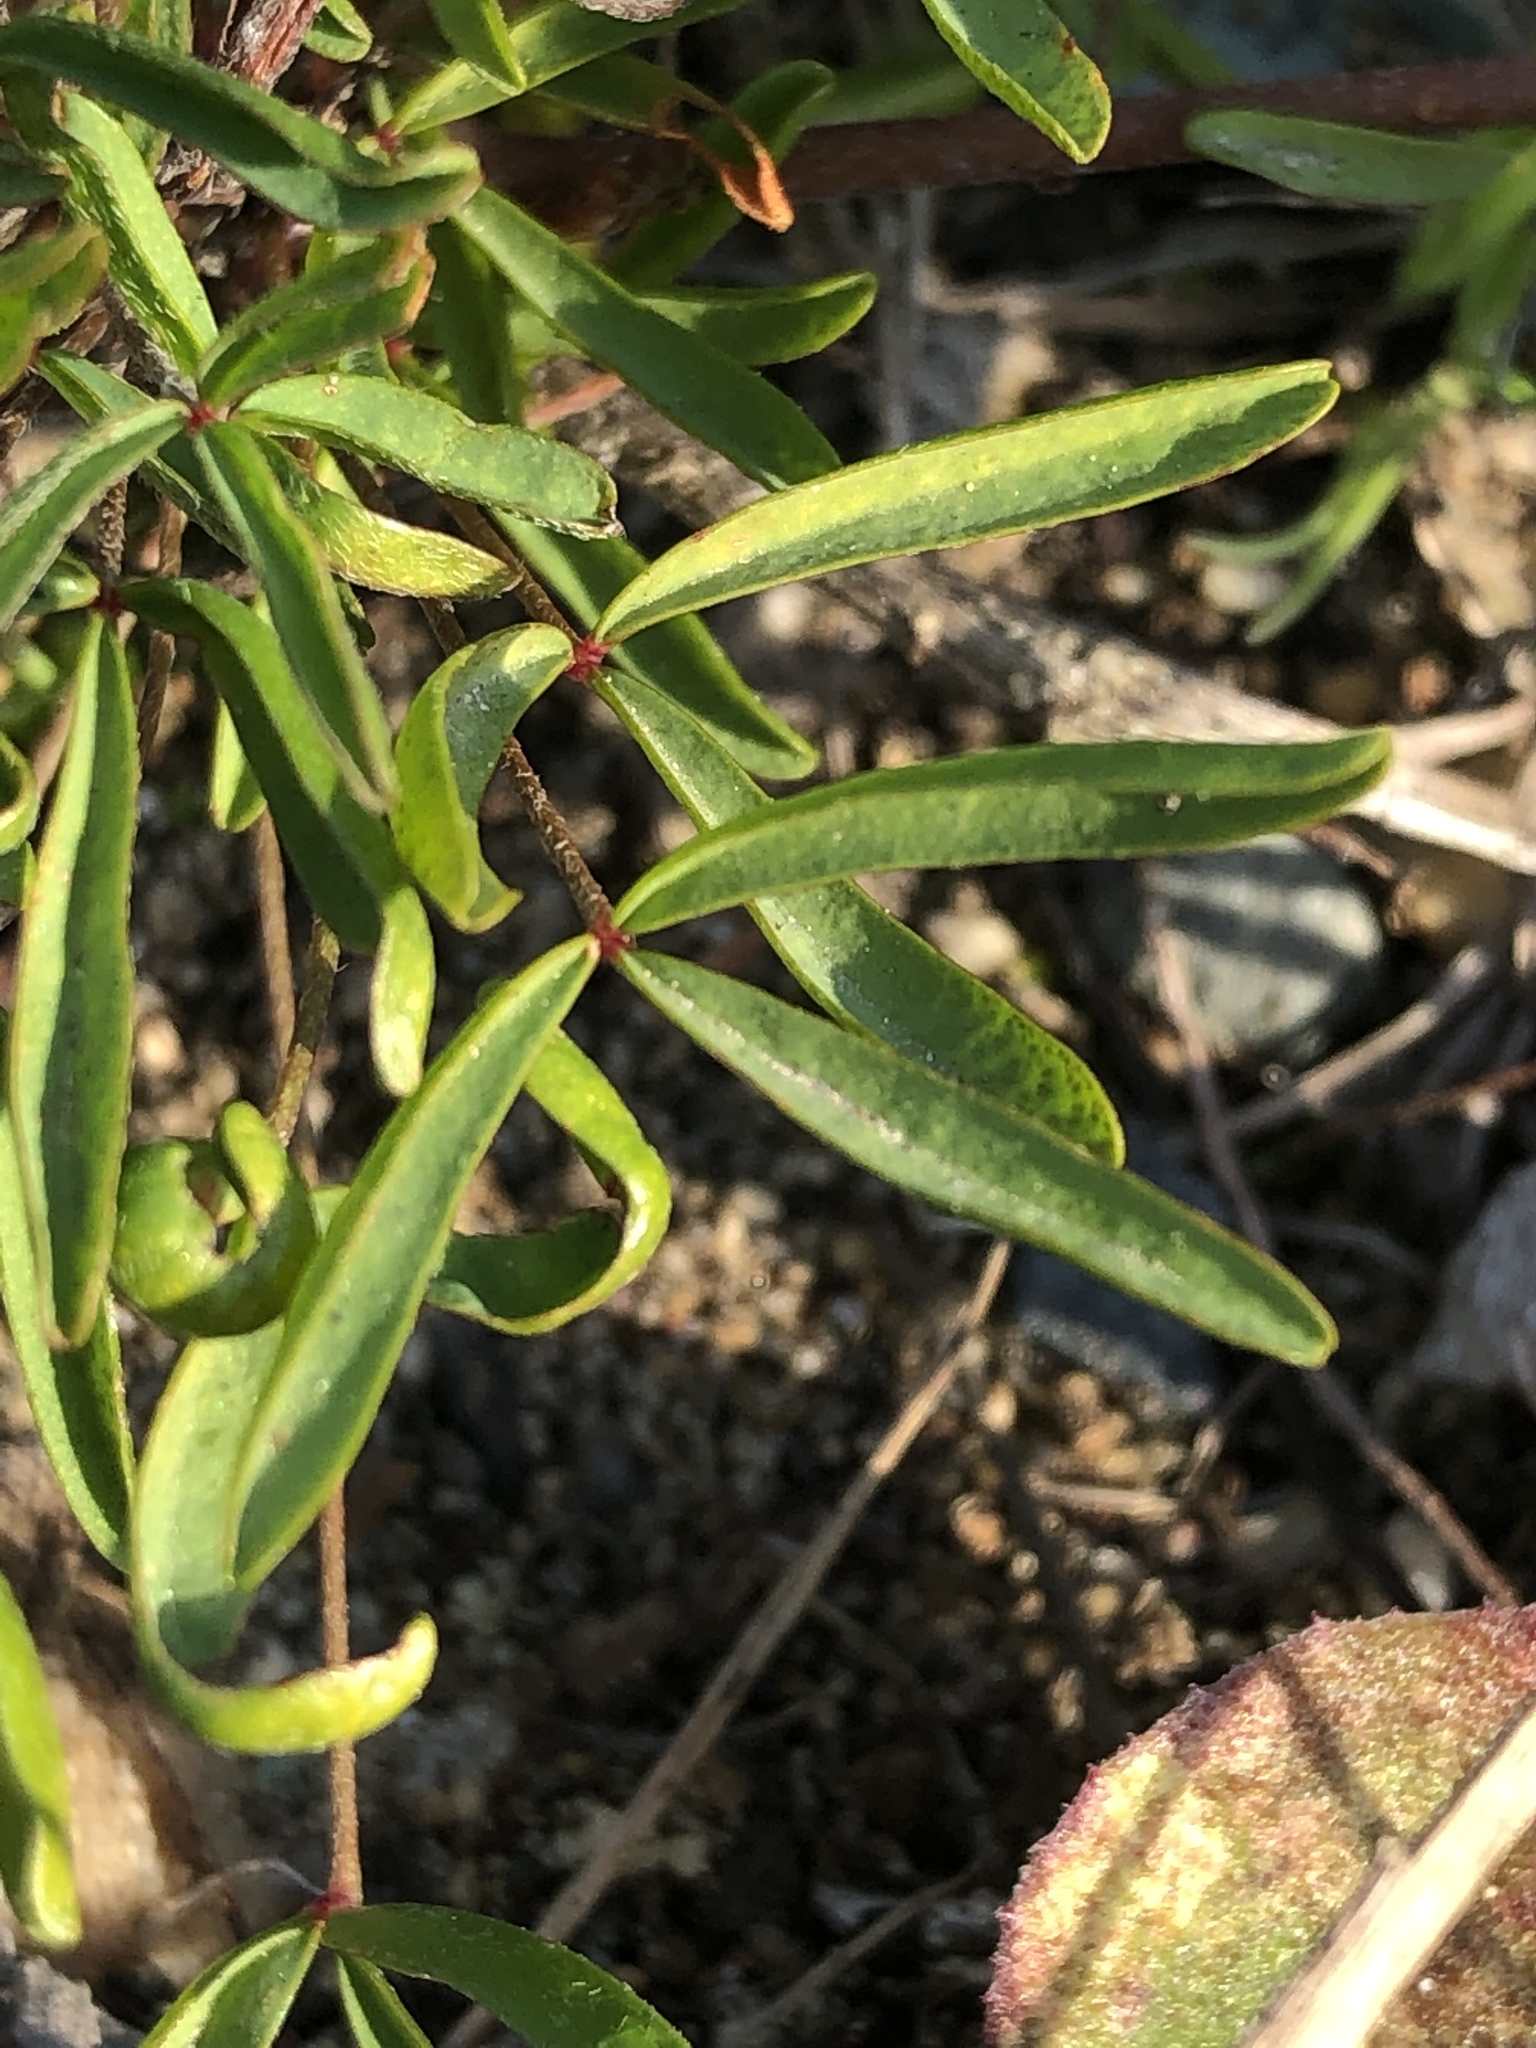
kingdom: Plantae
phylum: Tracheophyta
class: Magnoliopsida
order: Oxalidales
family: Oxalidaceae
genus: Oxalis
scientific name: Oxalis ciliaris
